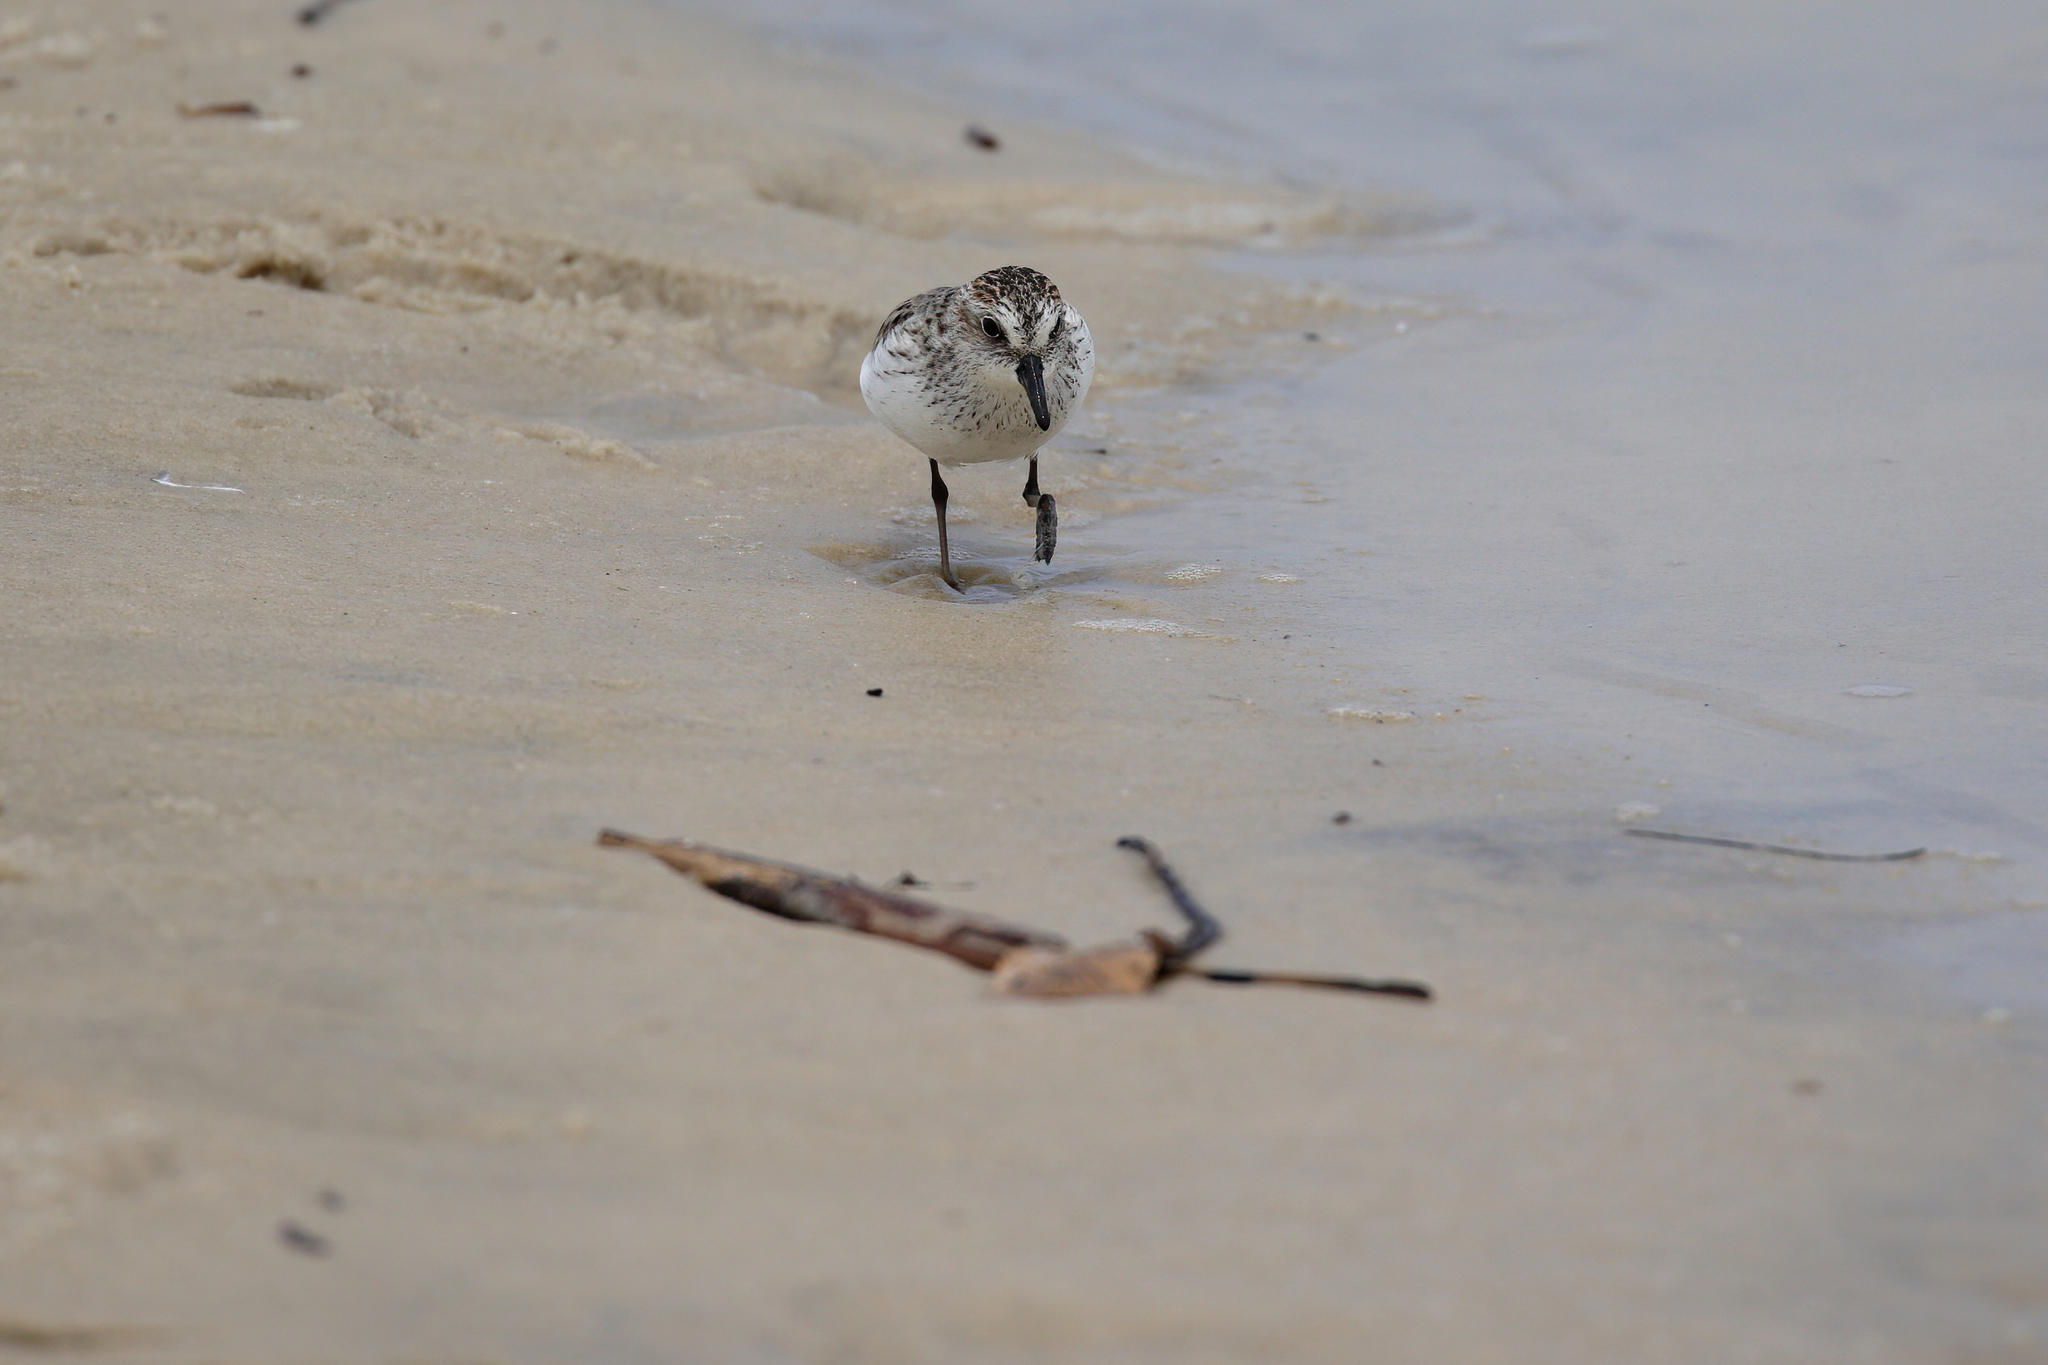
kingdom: Animalia
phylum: Chordata
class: Aves
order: Charadriiformes
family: Scolopacidae
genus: Calidris
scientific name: Calidris pusilla
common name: Semipalmated sandpiper
